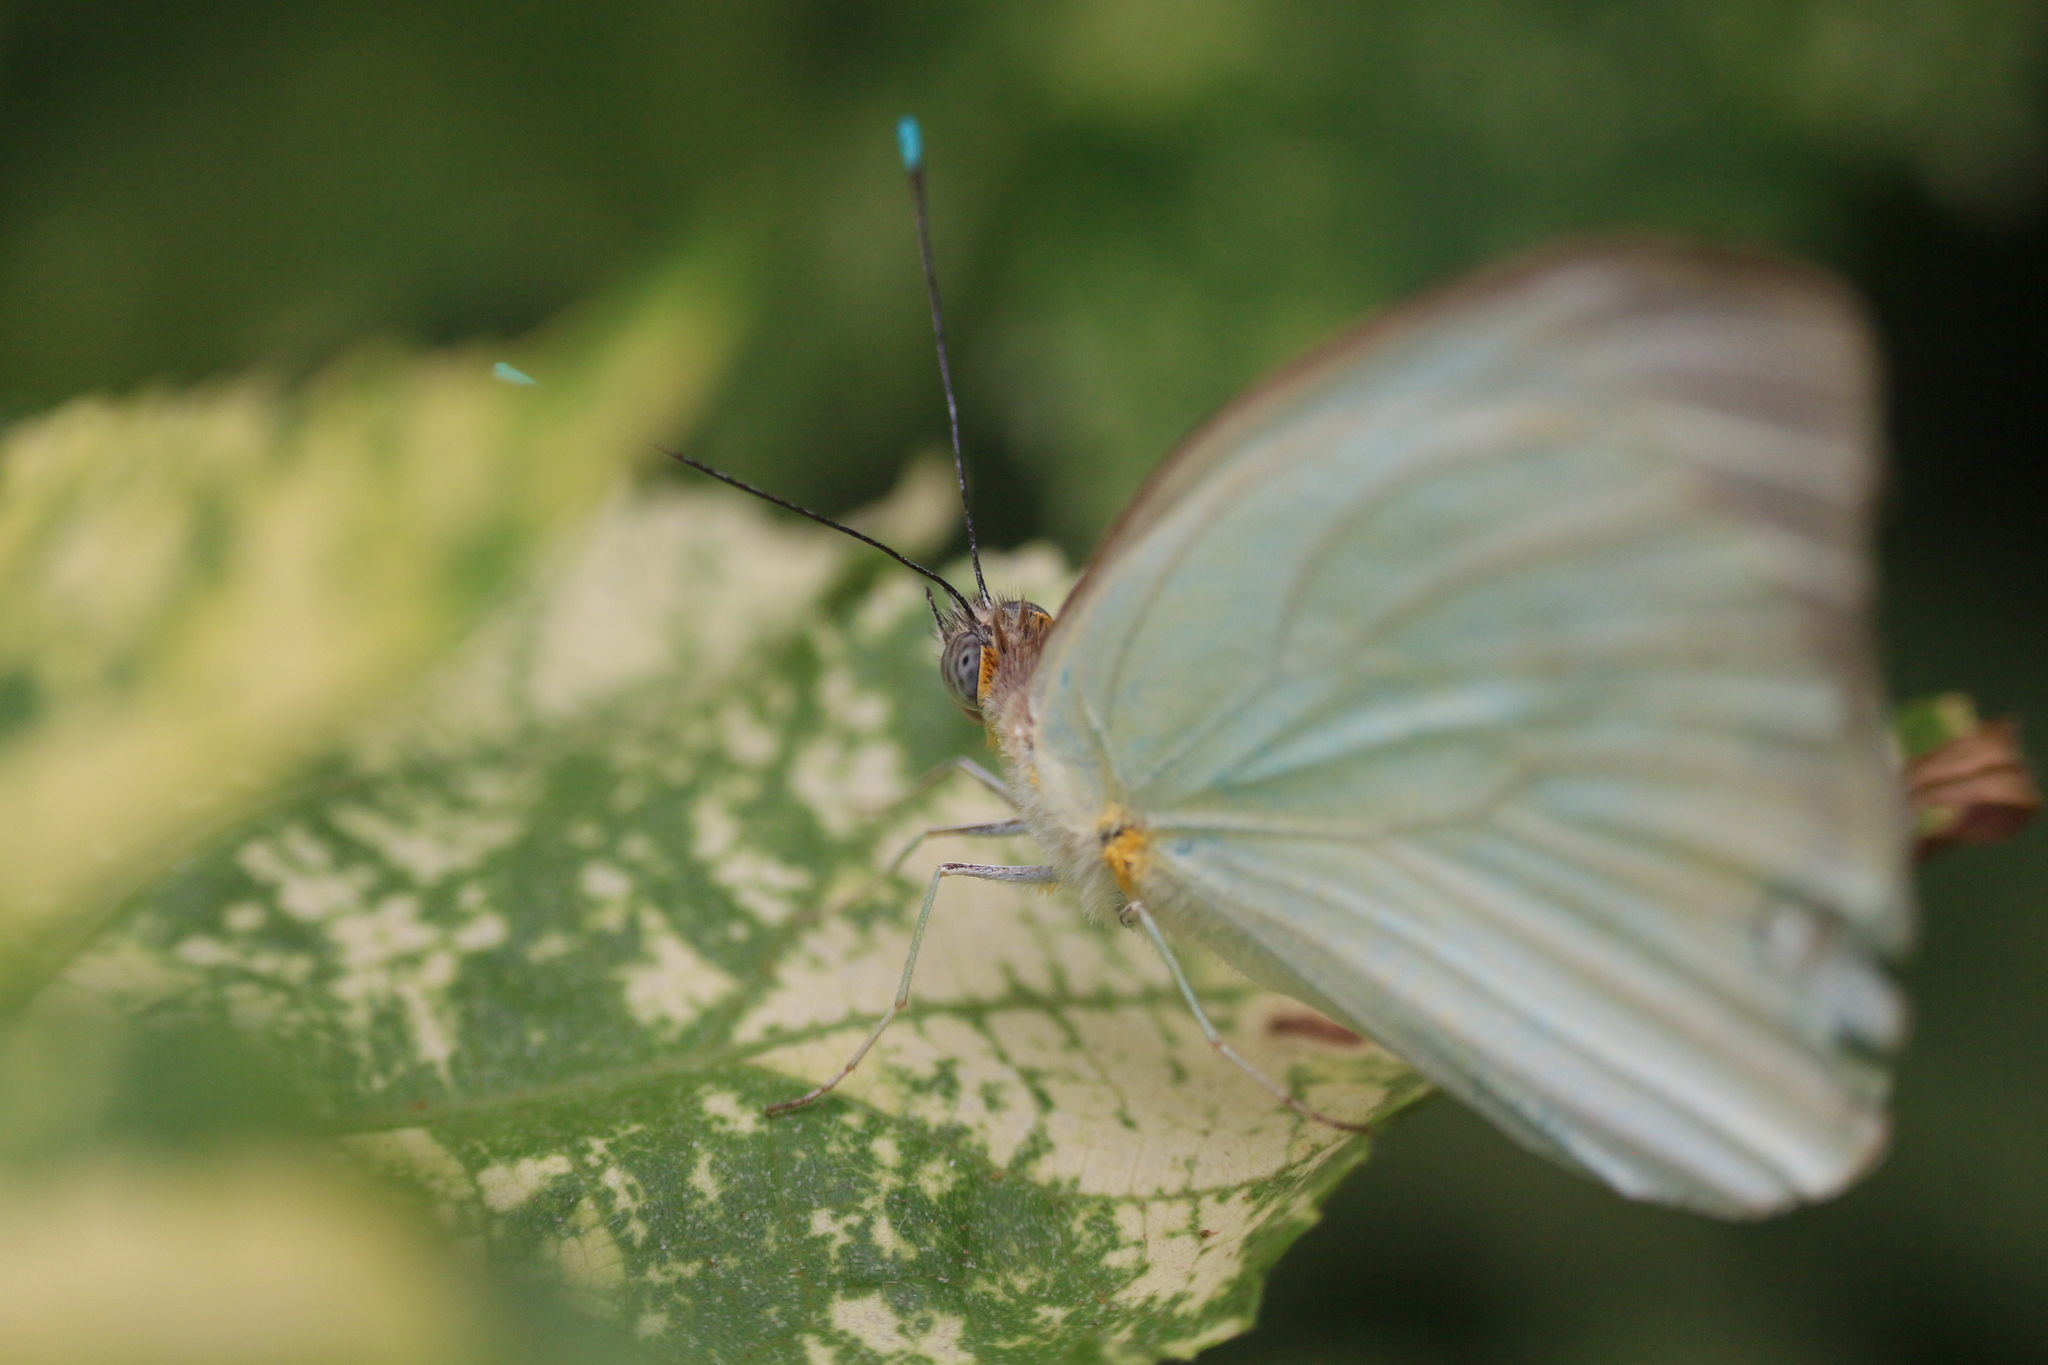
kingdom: Animalia
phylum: Arthropoda
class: Insecta
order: Lepidoptera
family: Pieridae
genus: Ascia
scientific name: Ascia monuste
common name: Great southern white
